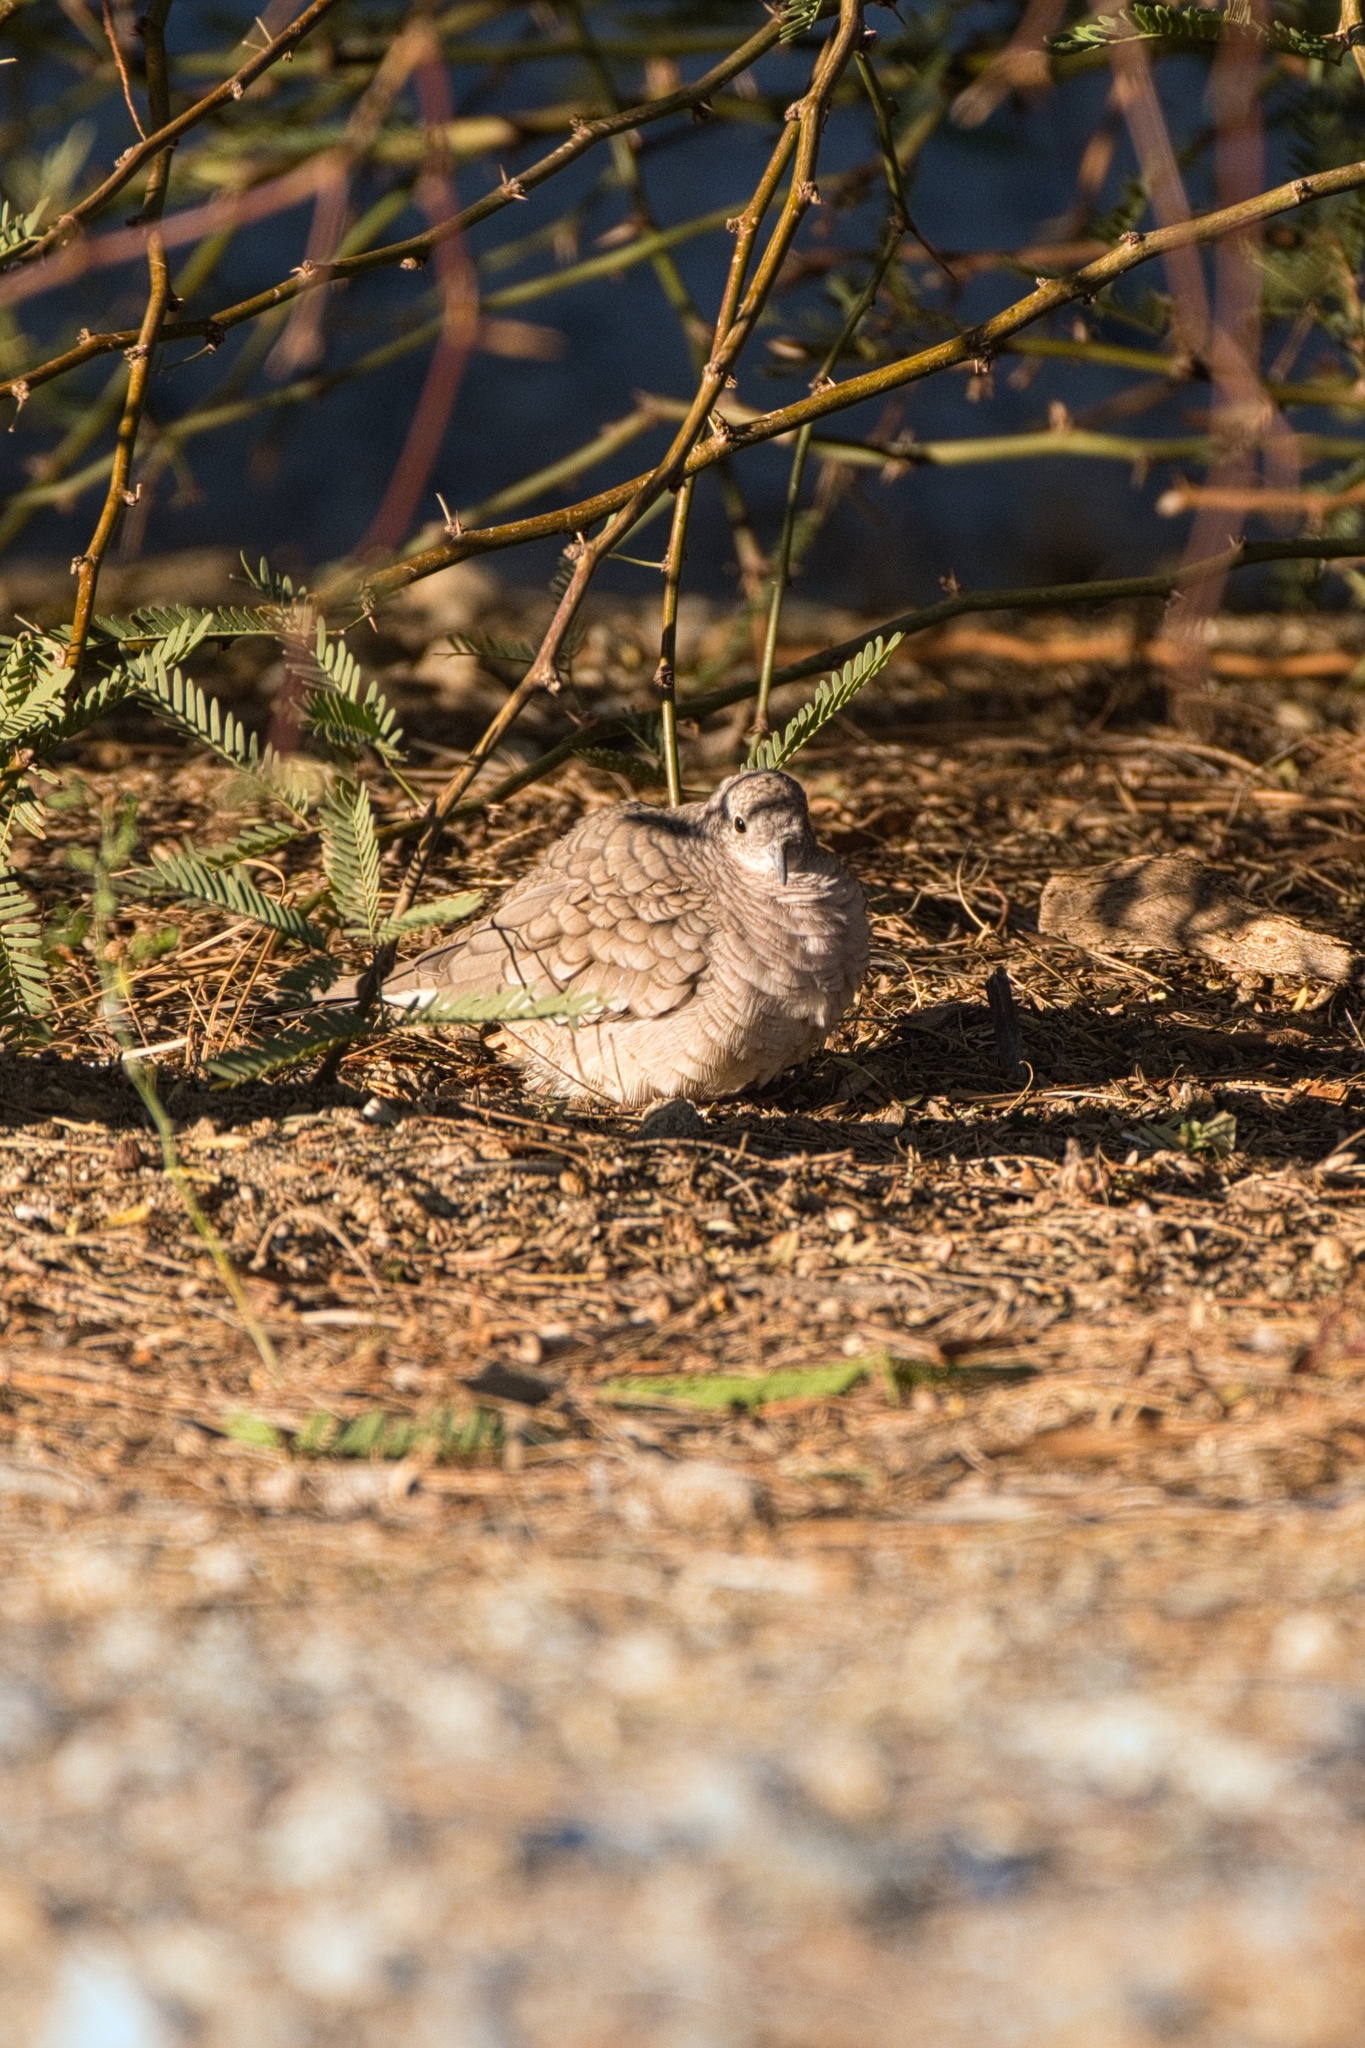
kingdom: Animalia
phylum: Chordata
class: Aves
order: Columbiformes
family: Columbidae
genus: Columbina
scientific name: Columbina inca
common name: Inca dove
